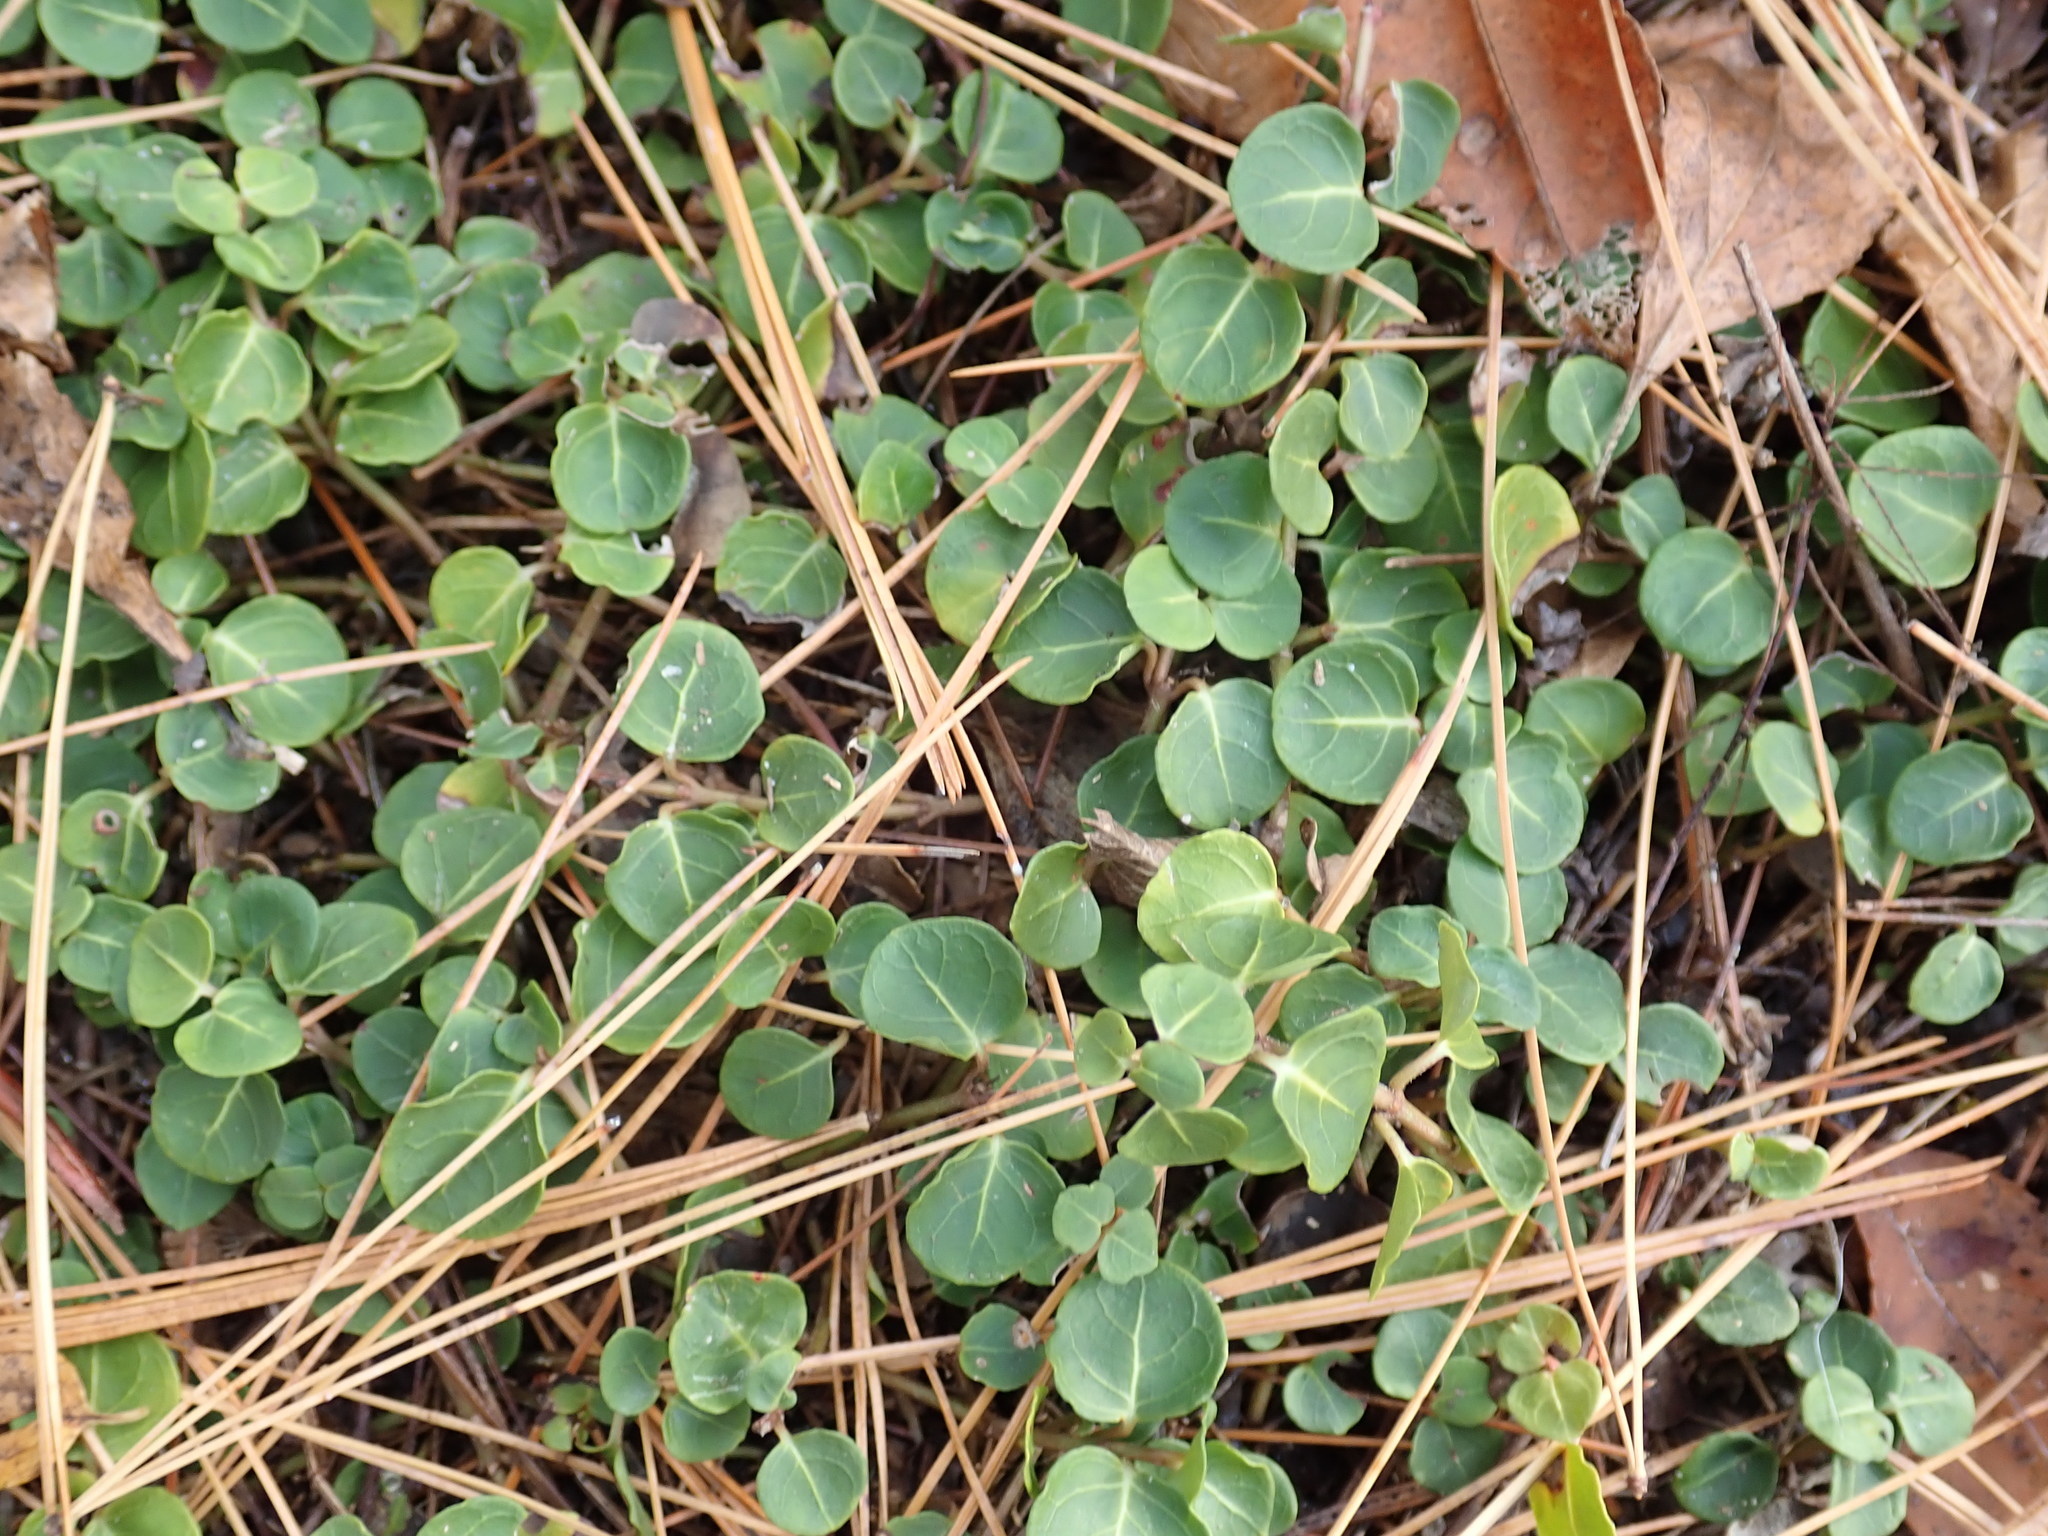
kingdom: Plantae
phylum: Tracheophyta
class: Magnoliopsida
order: Gentianales
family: Rubiaceae
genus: Mitchella
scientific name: Mitchella repens
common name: Partridge-berry
